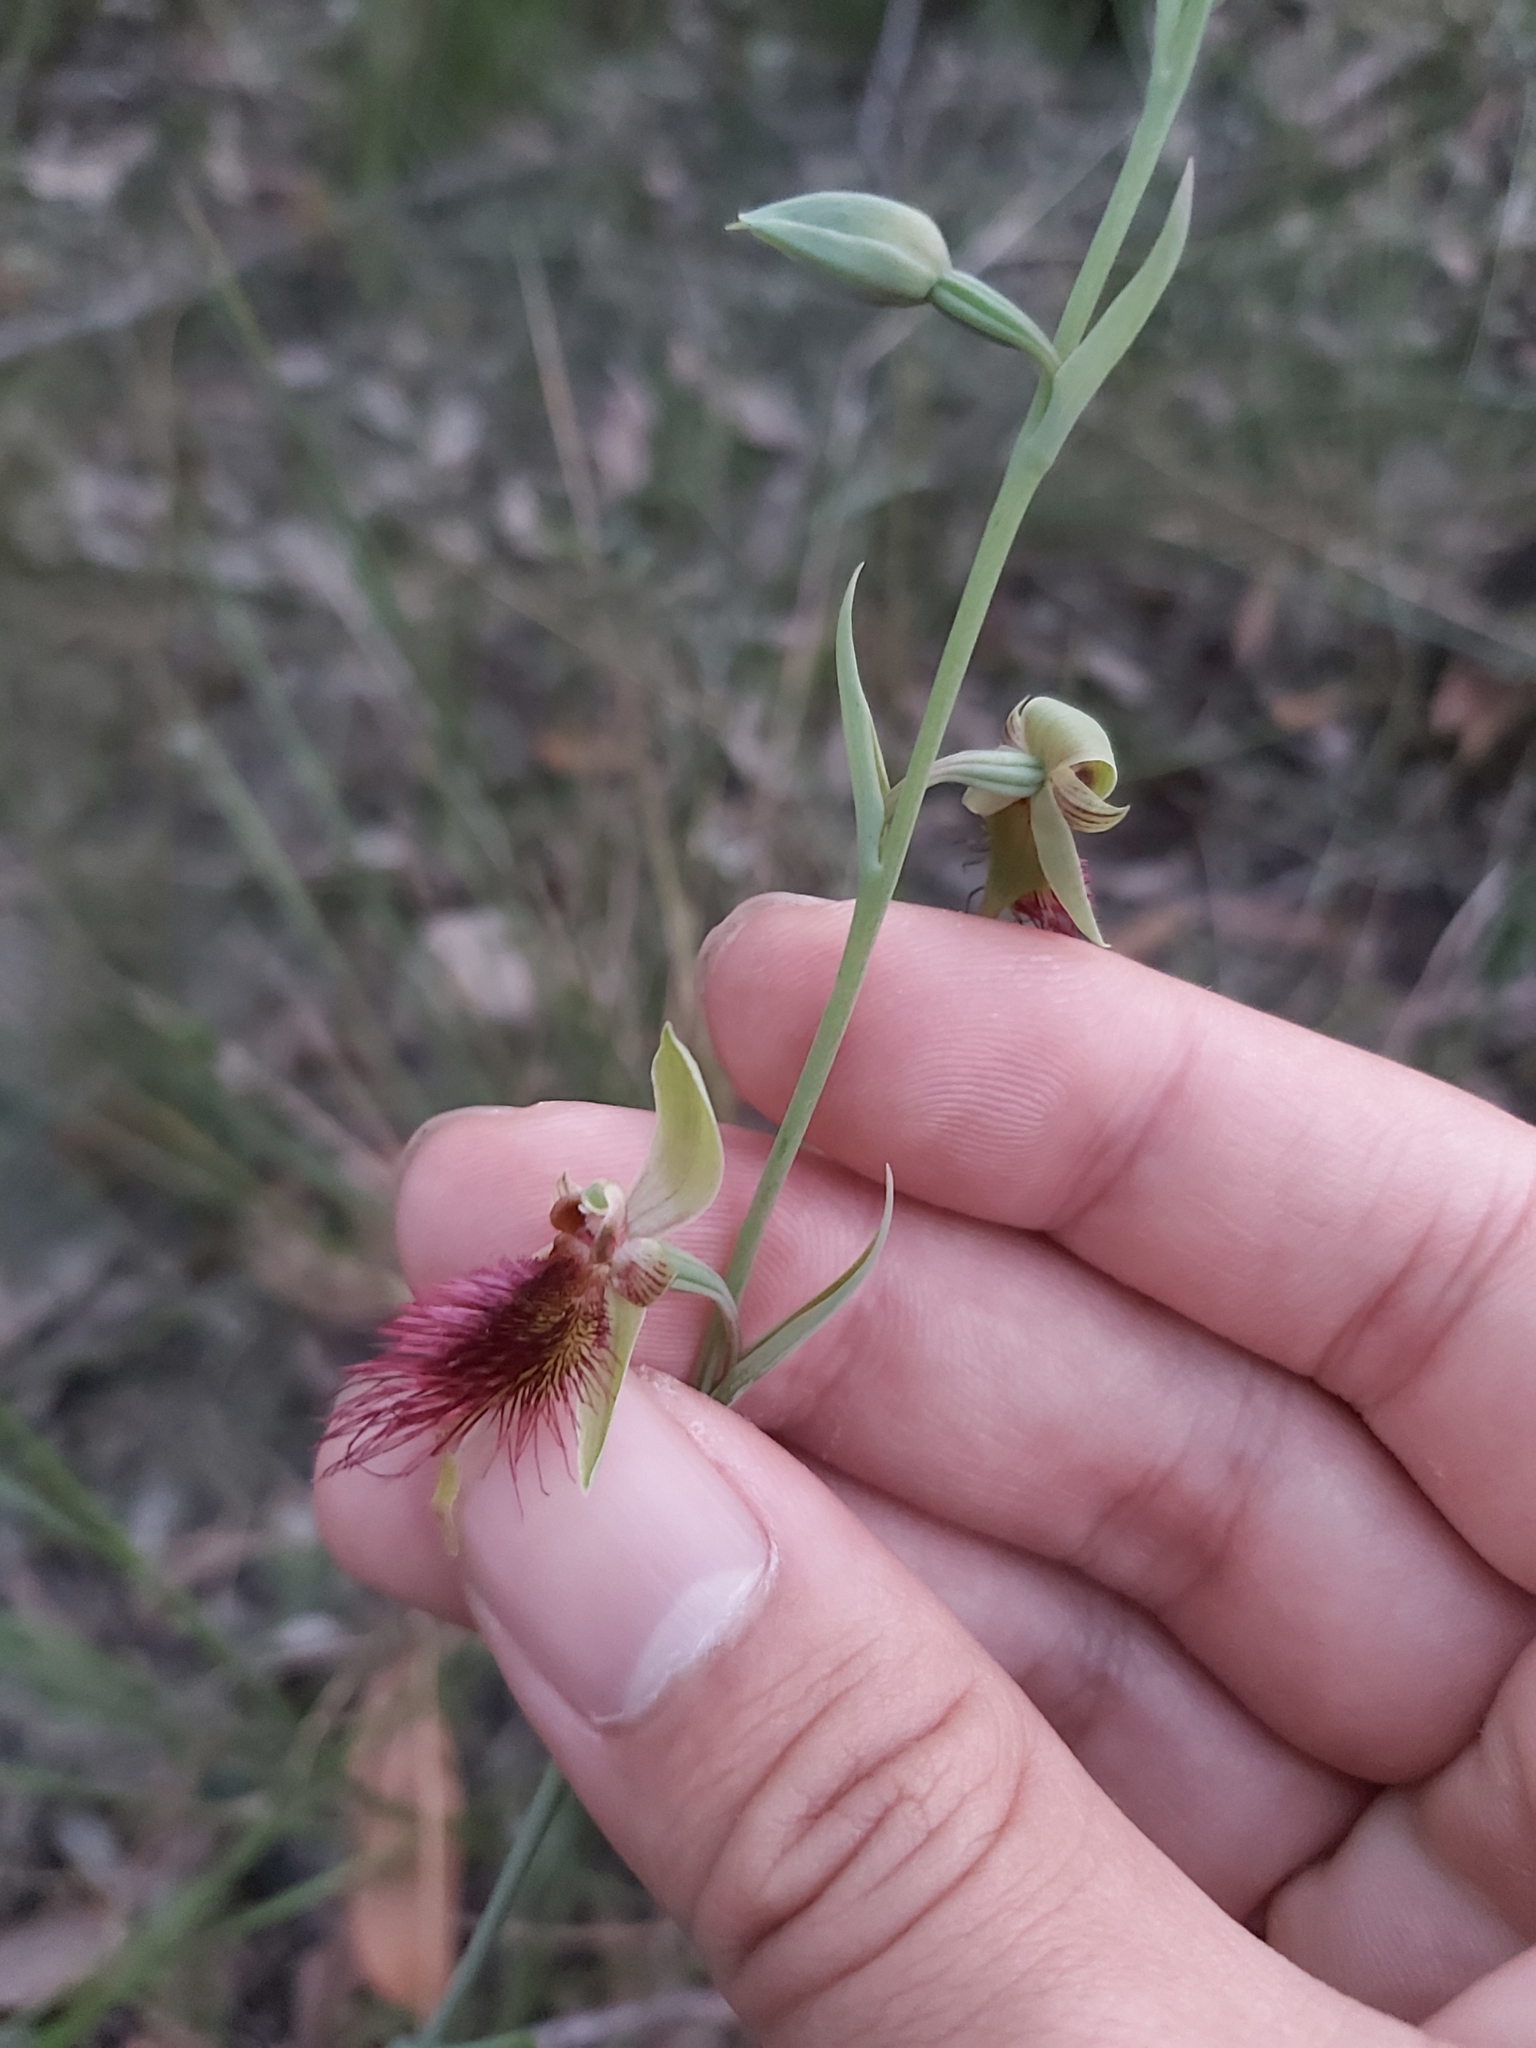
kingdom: Plantae
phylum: Tracheophyta
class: Liliopsida
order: Asparagales
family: Orchidaceae
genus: Calochilus
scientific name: Calochilus paludosus
